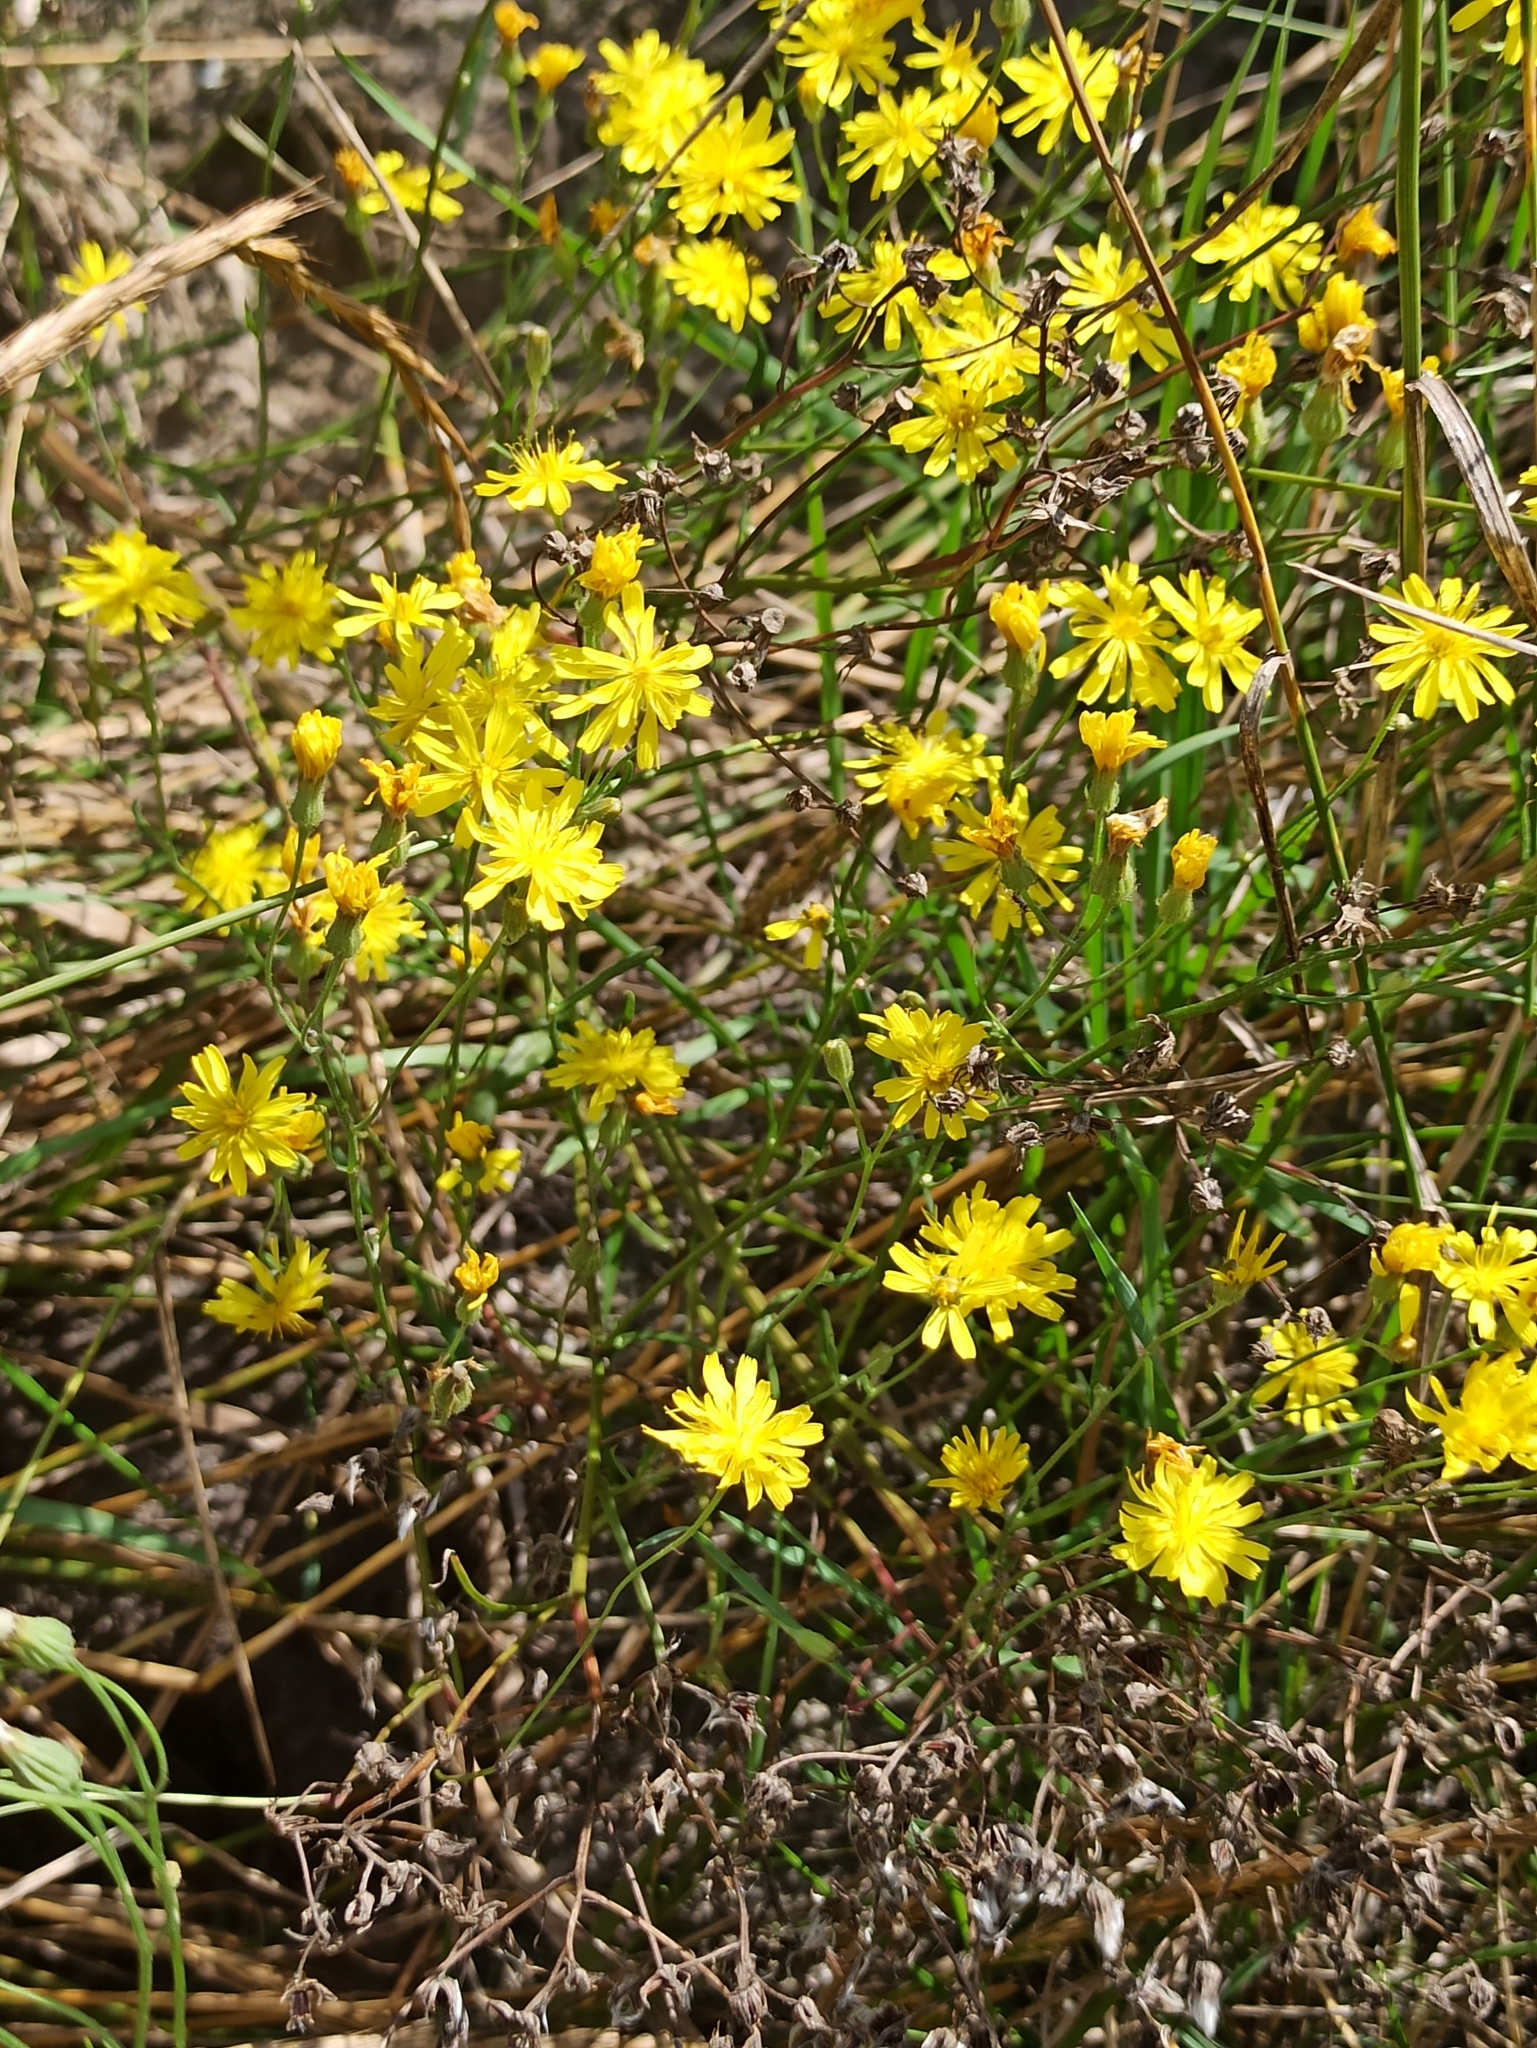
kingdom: Plantae
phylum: Tracheophyta
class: Magnoliopsida
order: Asterales
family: Asteraceae
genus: Crepis
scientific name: Crepis tectorum
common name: Narrow-leaved hawk's-beard
